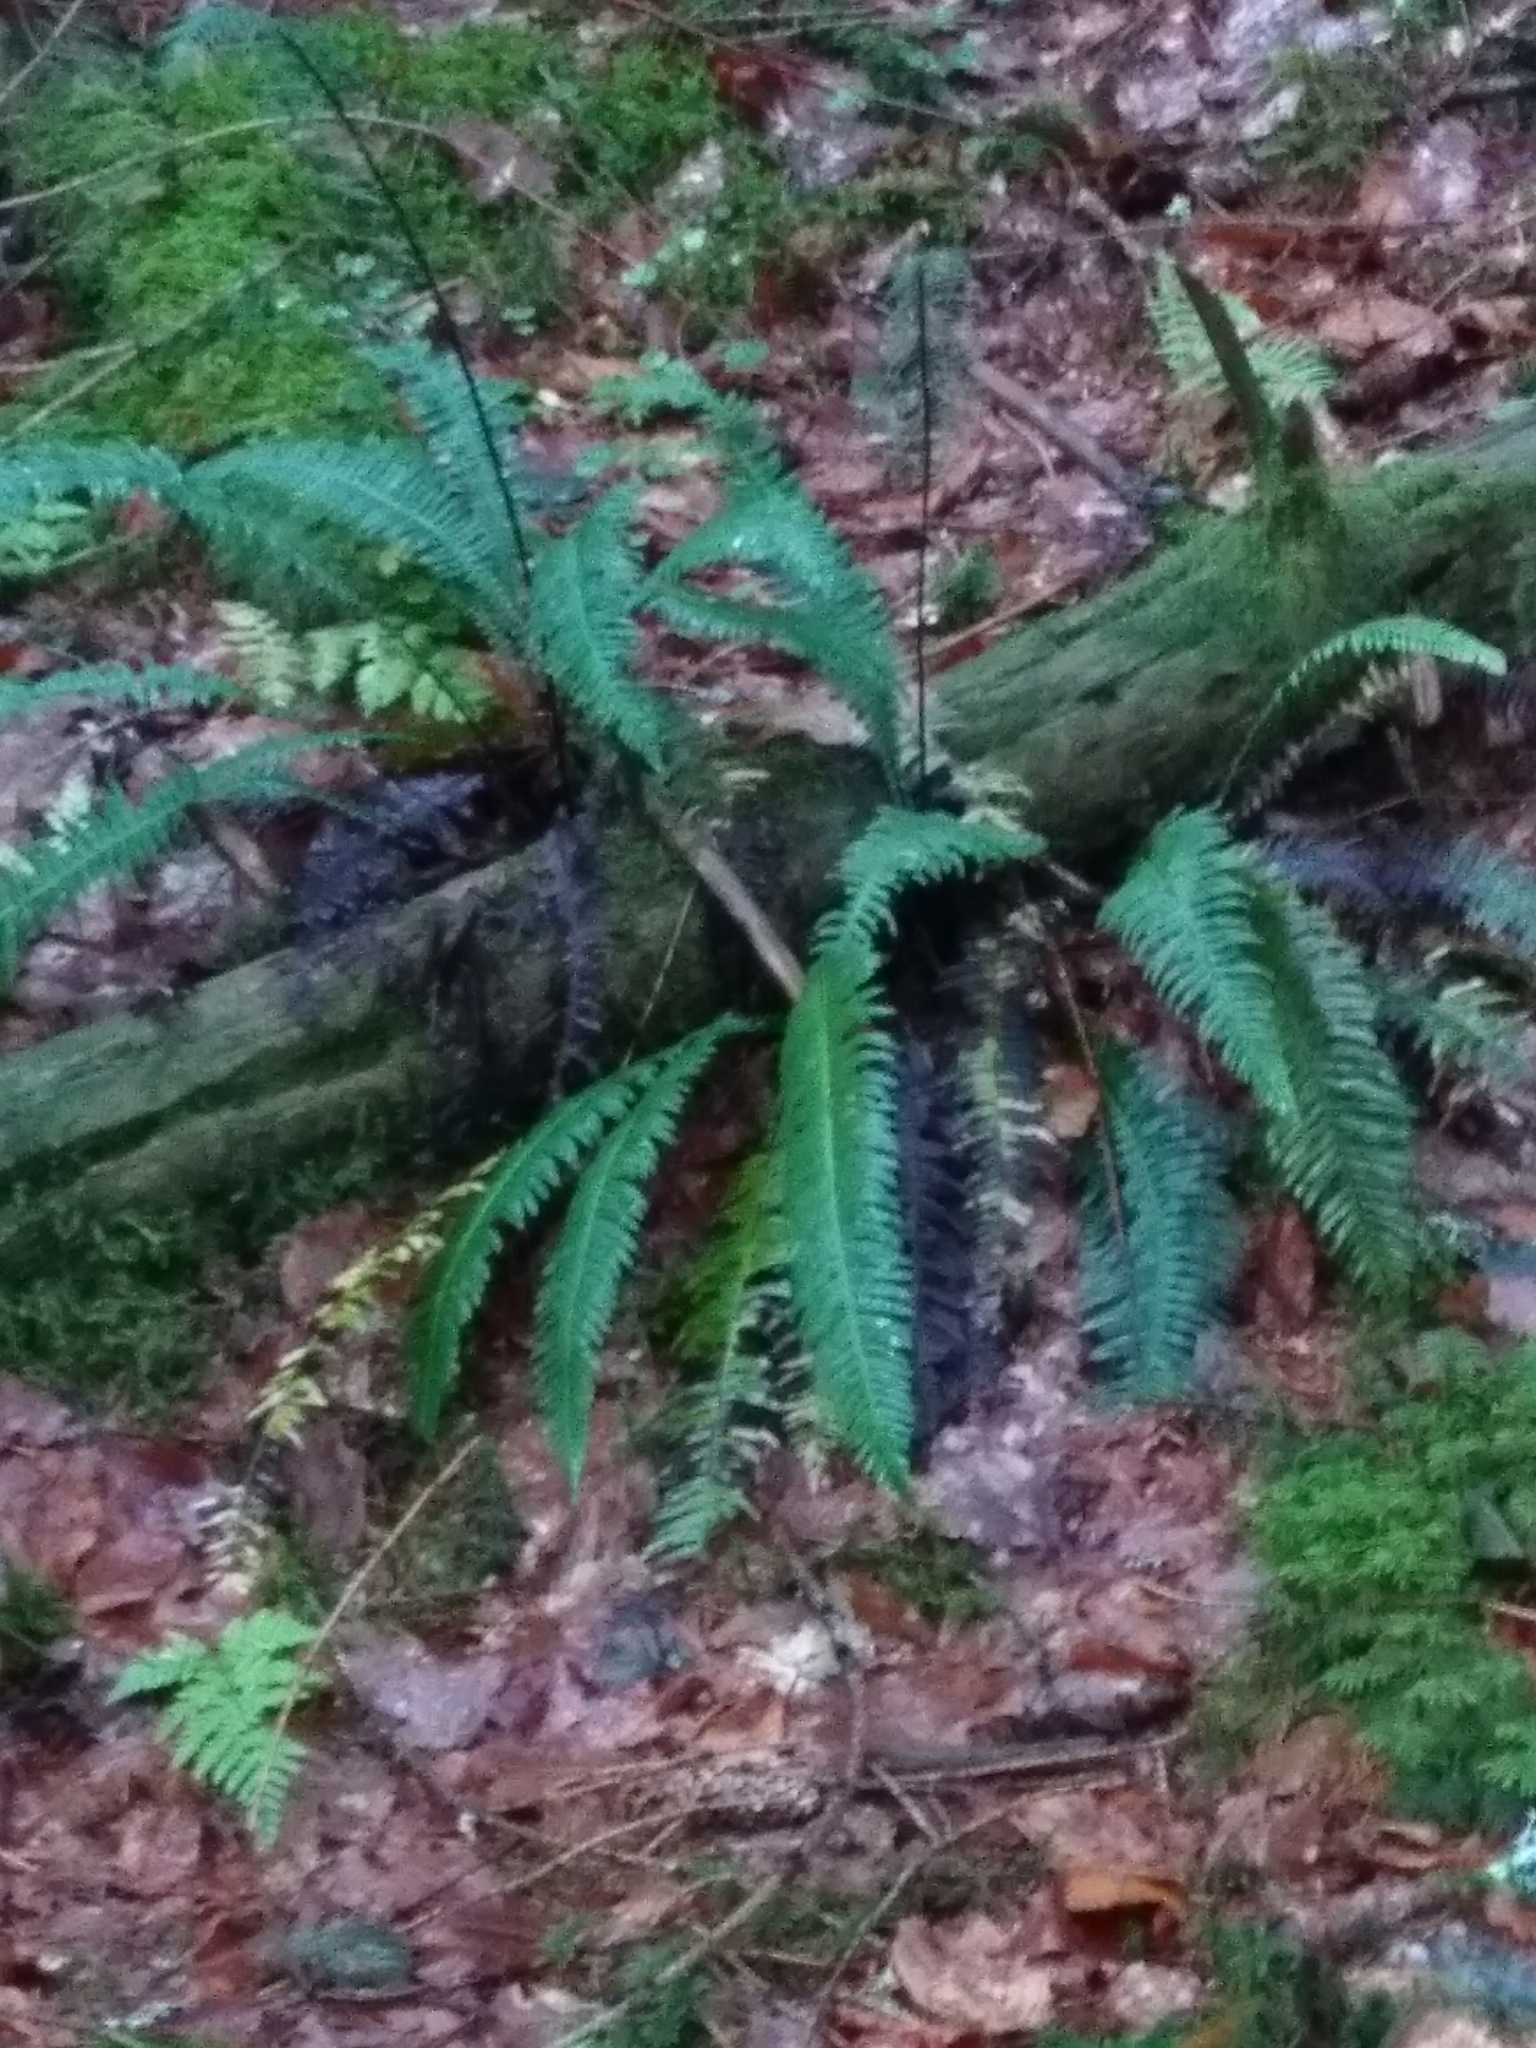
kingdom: Plantae
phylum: Tracheophyta
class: Polypodiopsida
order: Polypodiales
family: Blechnaceae
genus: Struthiopteris
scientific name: Struthiopteris spicant
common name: Deer fern
